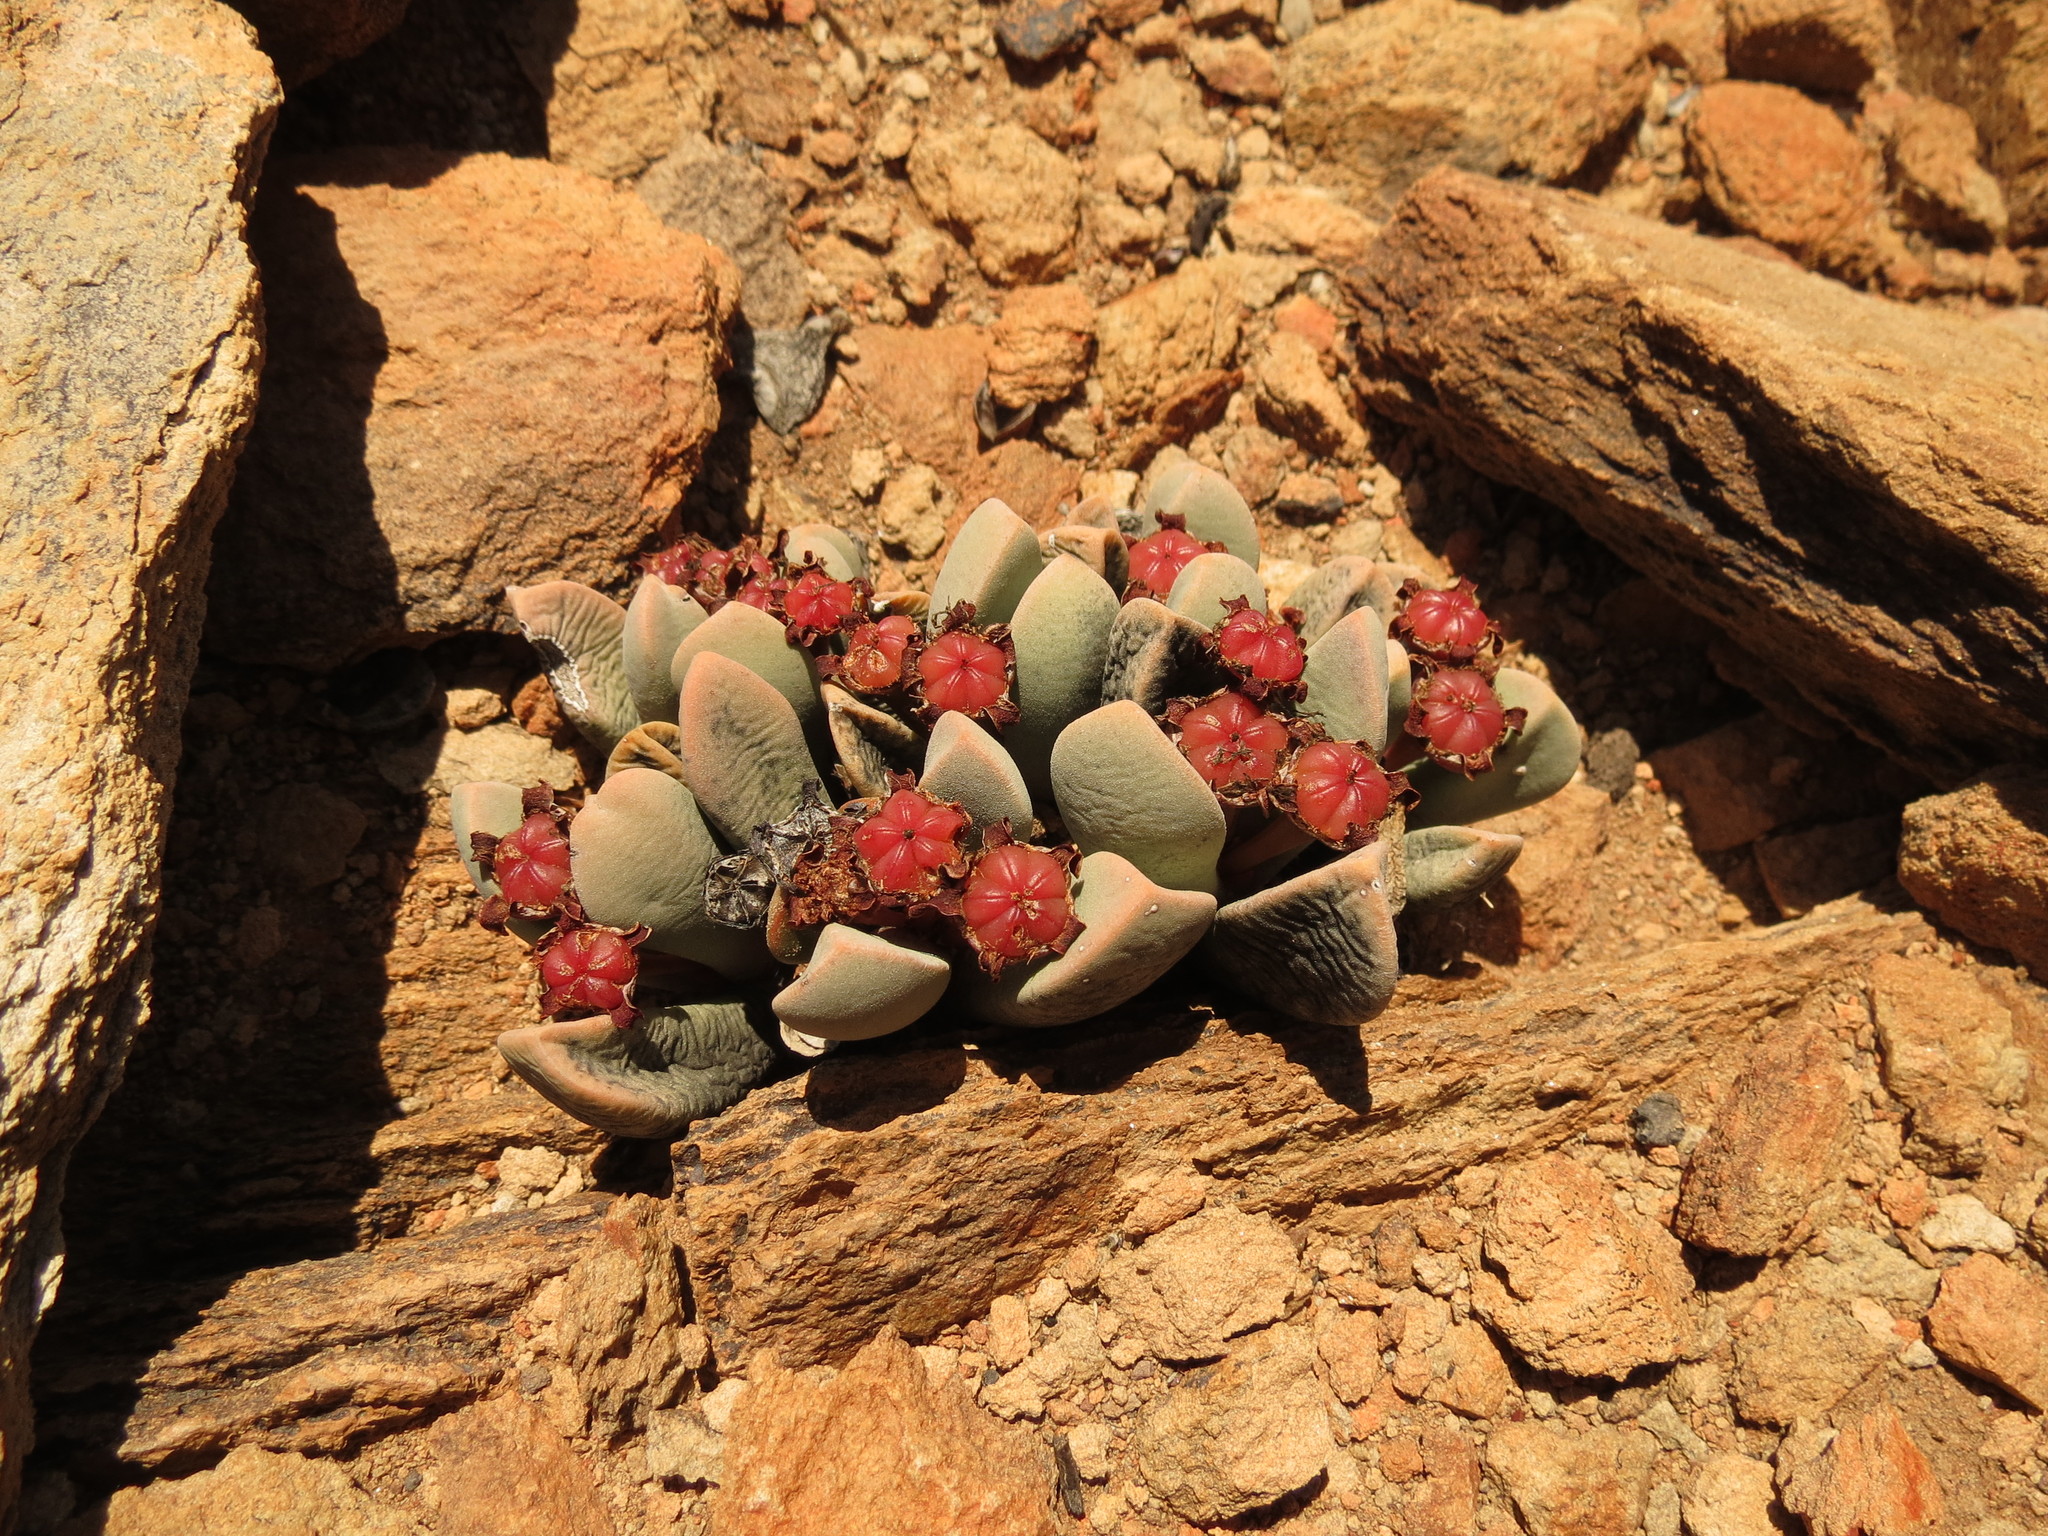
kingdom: Plantae
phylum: Tracheophyta
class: Magnoliopsida
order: Caryophyllales
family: Aizoaceae
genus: Cerochlamys
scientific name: Cerochlamys pachyphylla
